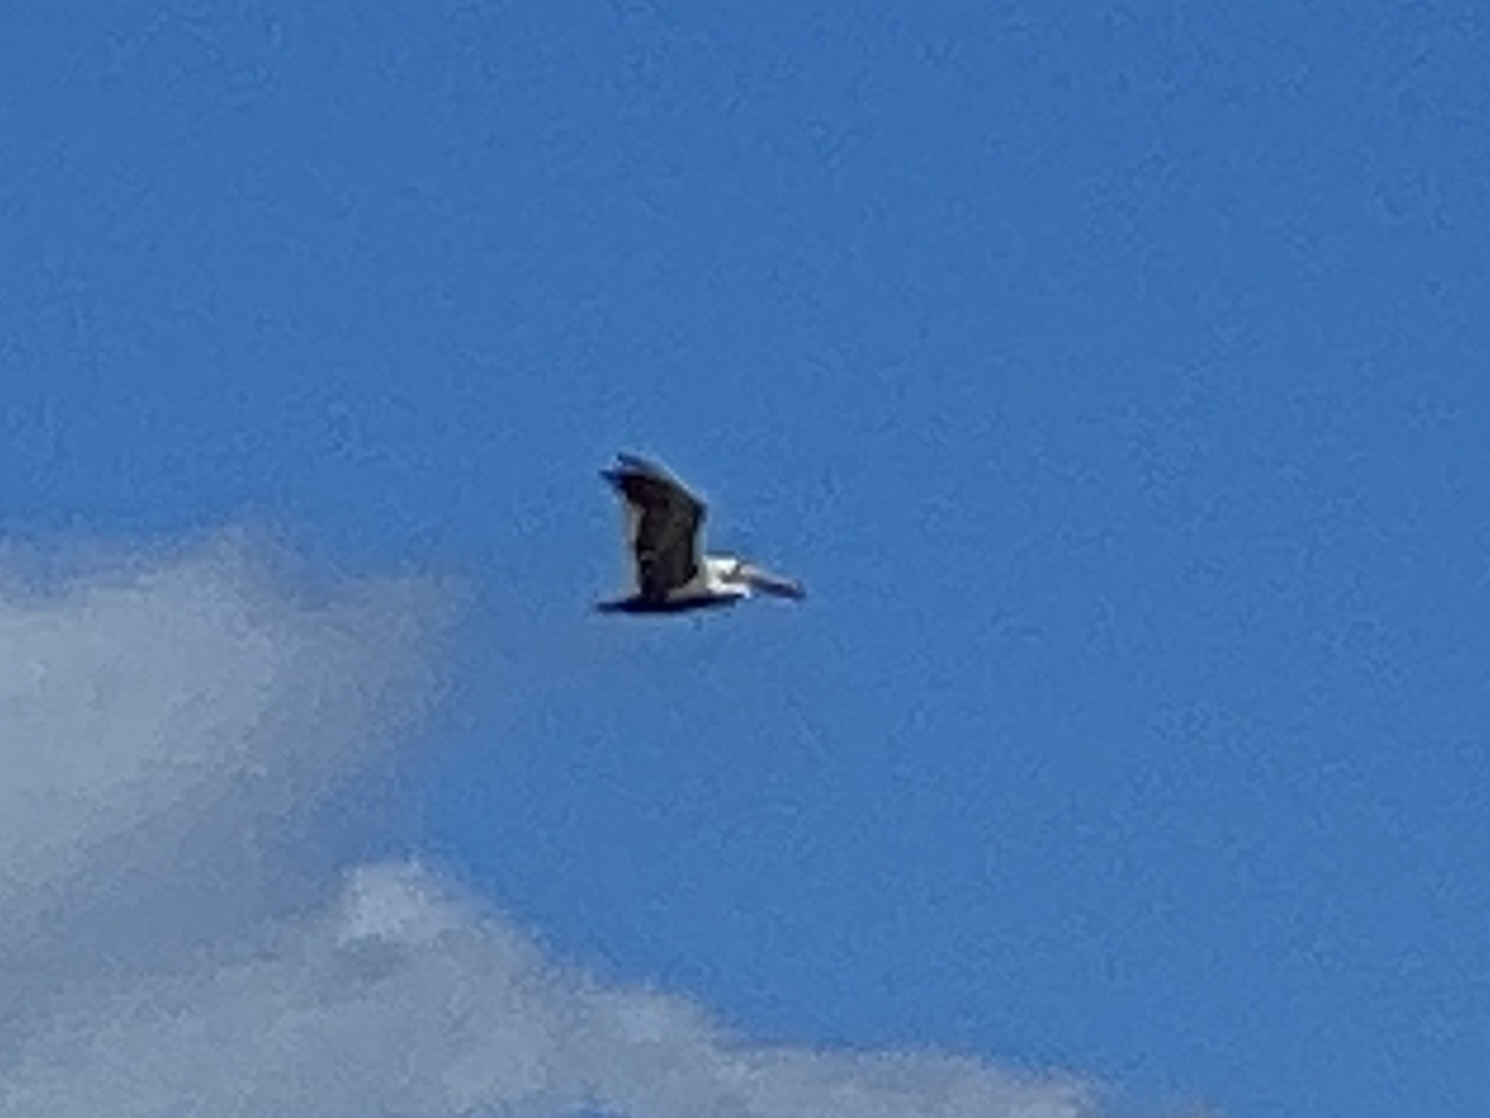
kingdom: Animalia
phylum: Chordata
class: Aves
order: Pelecaniformes
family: Pelecanidae
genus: Pelecanus
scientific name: Pelecanus occidentalis
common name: Brown pelican
